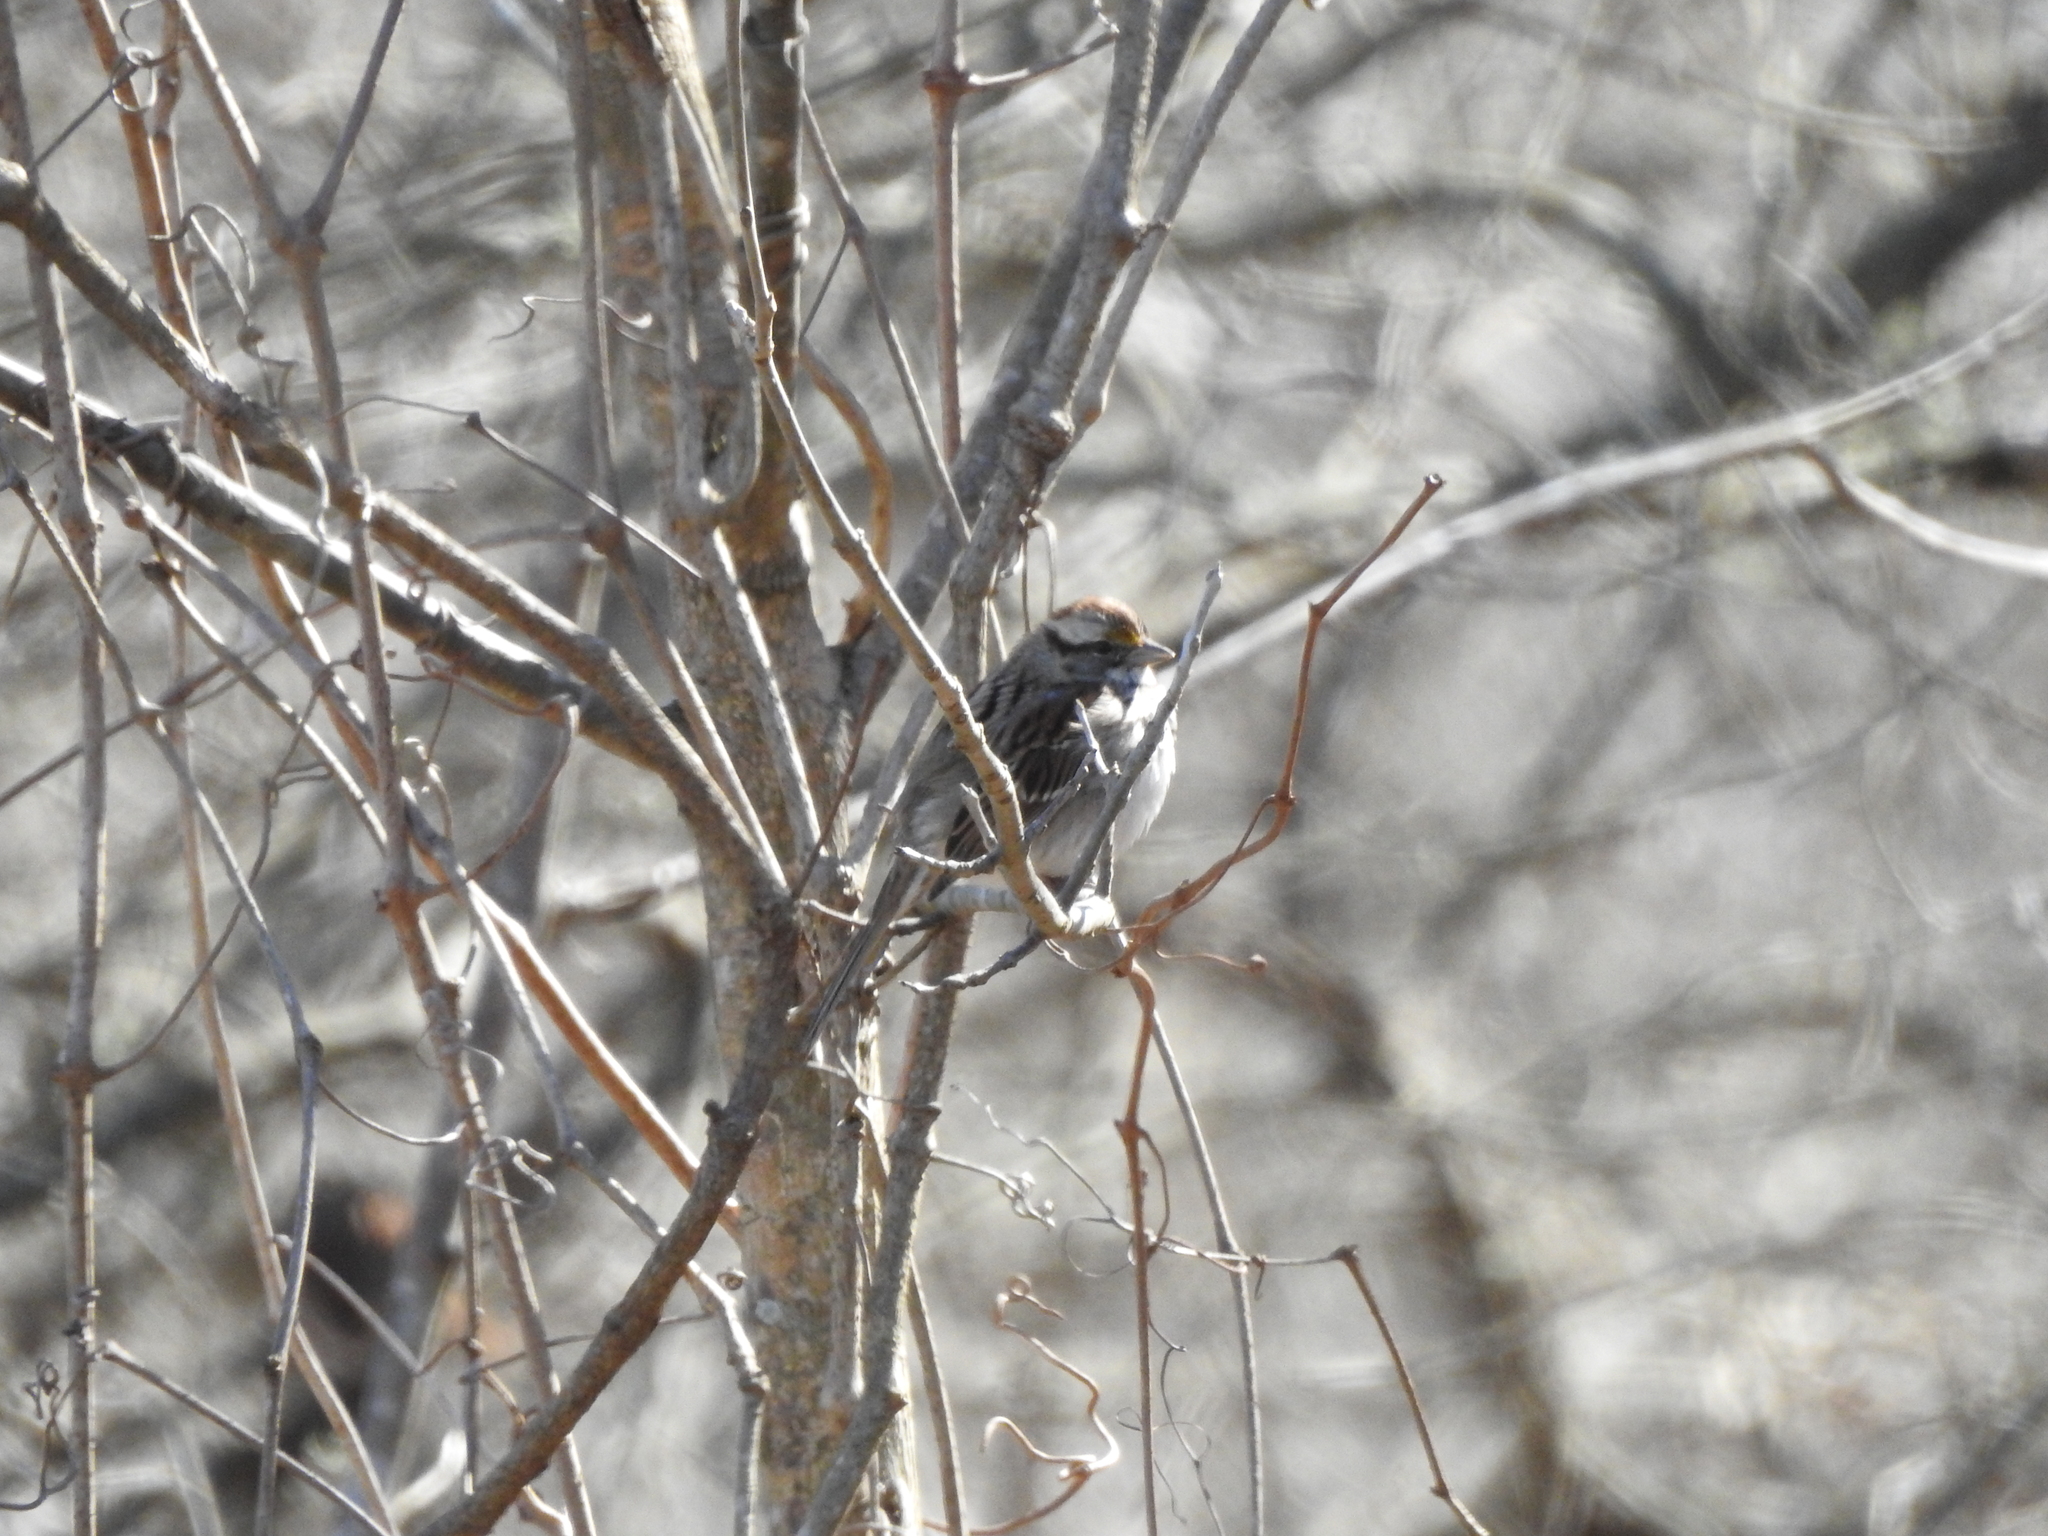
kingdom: Animalia
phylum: Chordata
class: Aves
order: Passeriformes
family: Passerellidae
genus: Zonotrichia
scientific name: Zonotrichia albicollis
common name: White-throated sparrow
